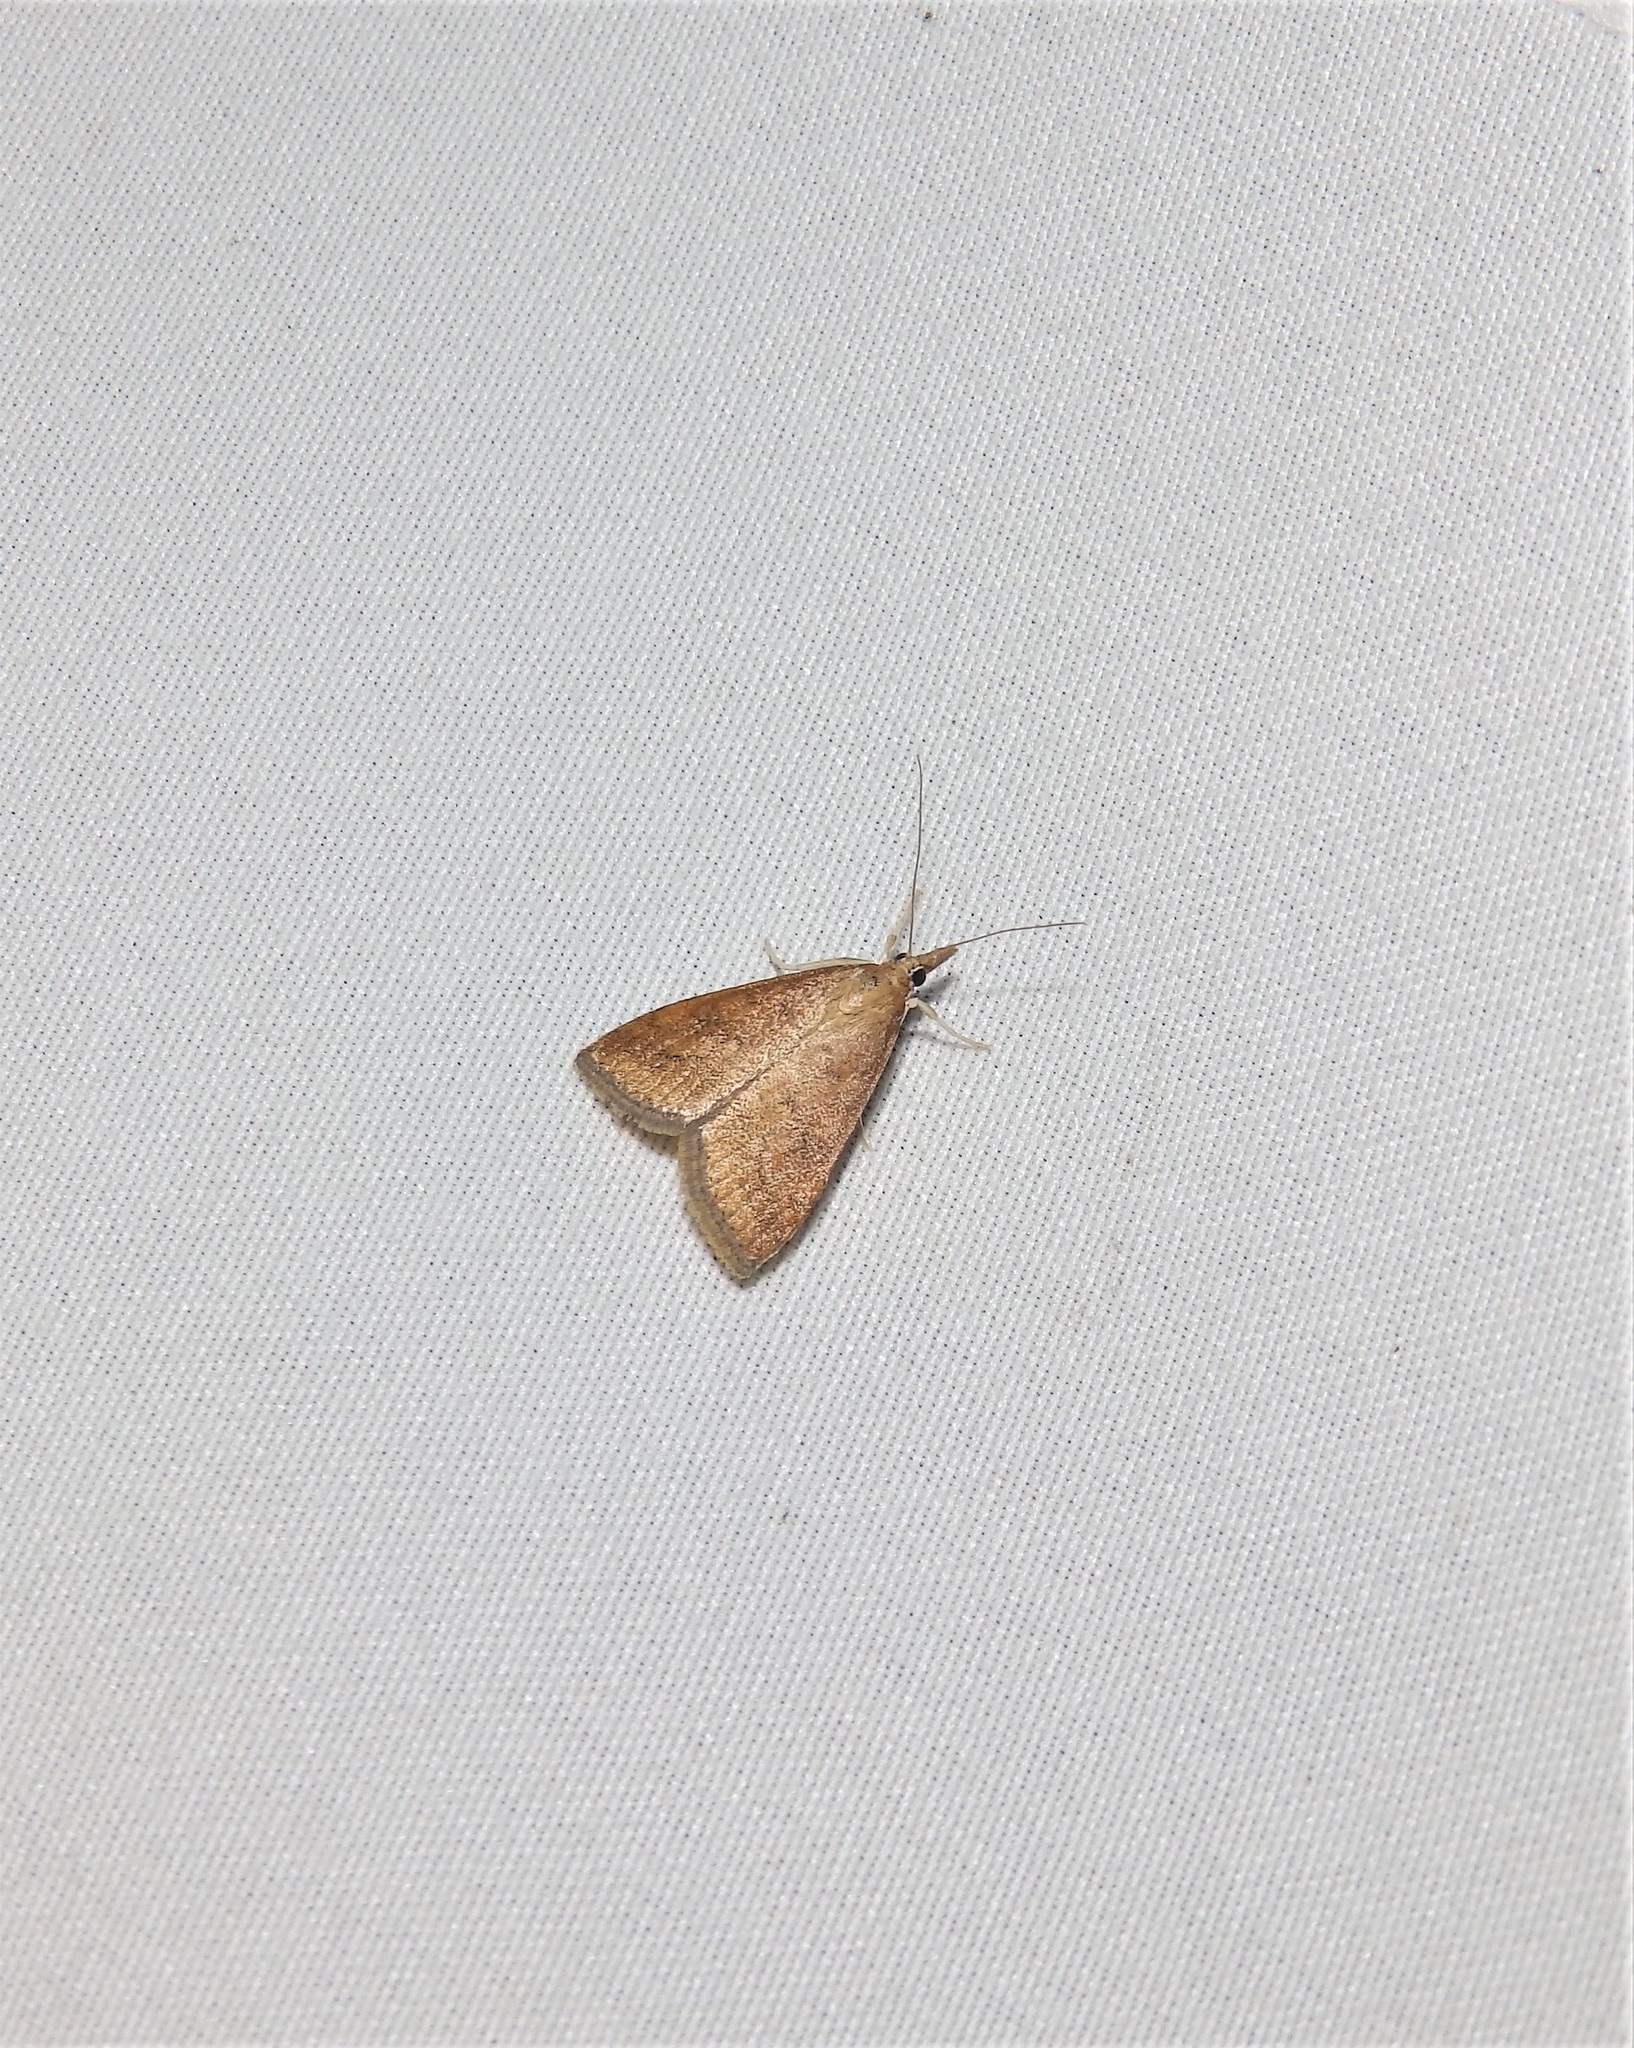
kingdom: Animalia
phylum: Arthropoda
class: Insecta
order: Lepidoptera
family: Crambidae
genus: Udea
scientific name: Udea rubigalis
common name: Celery leaftier moth
